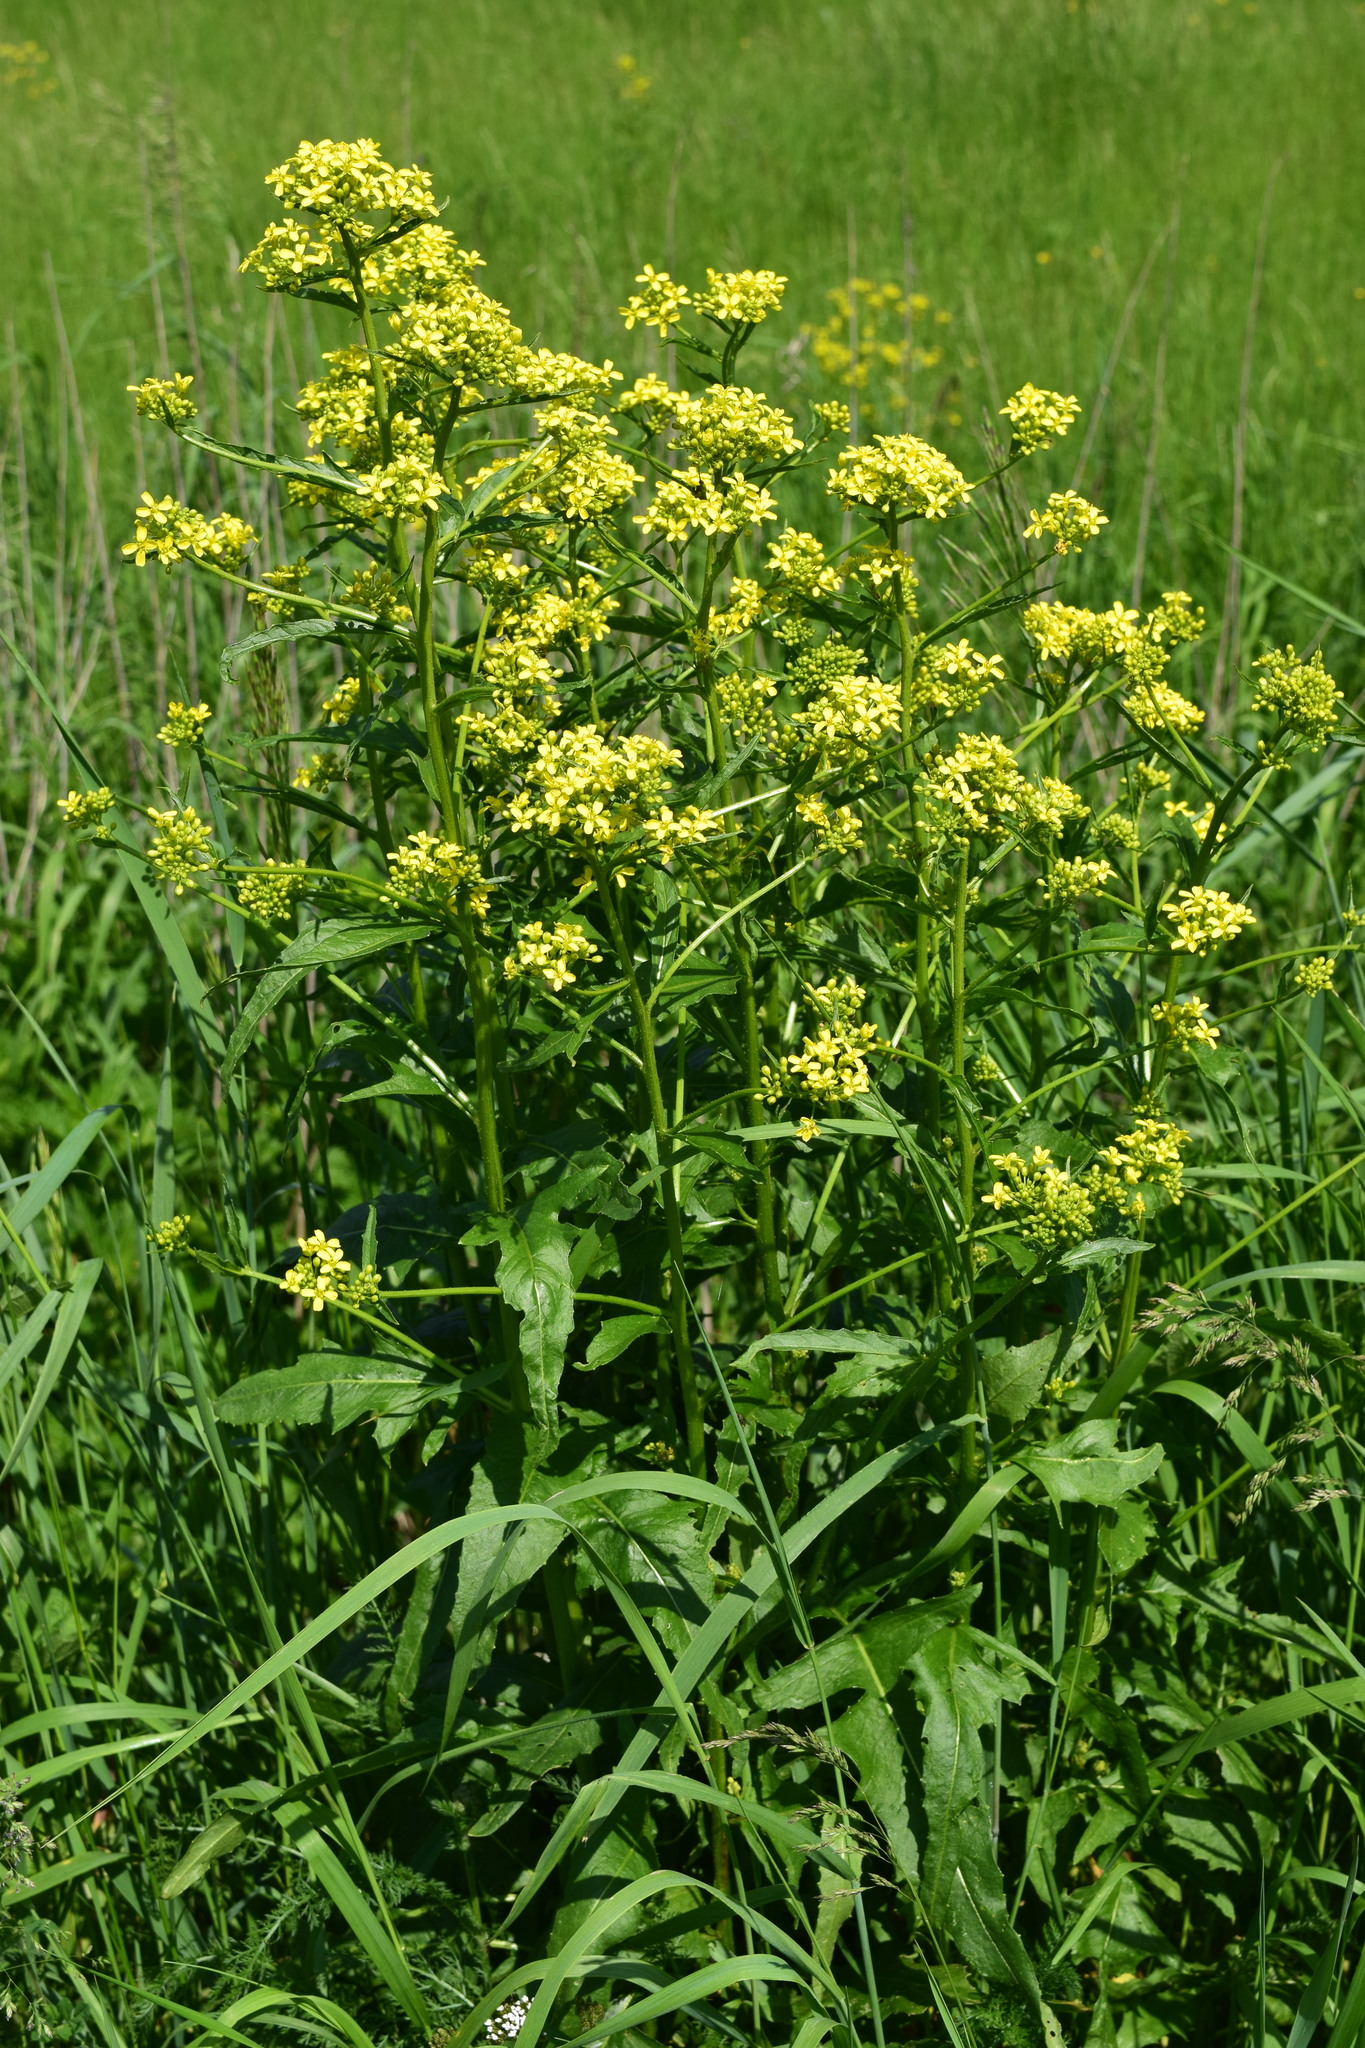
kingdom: Plantae
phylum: Tracheophyta
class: Magnoliopsida
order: Brassicales
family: Brassicaceae
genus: Bunias
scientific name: Bunias orientalis
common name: Warty-cabbage
